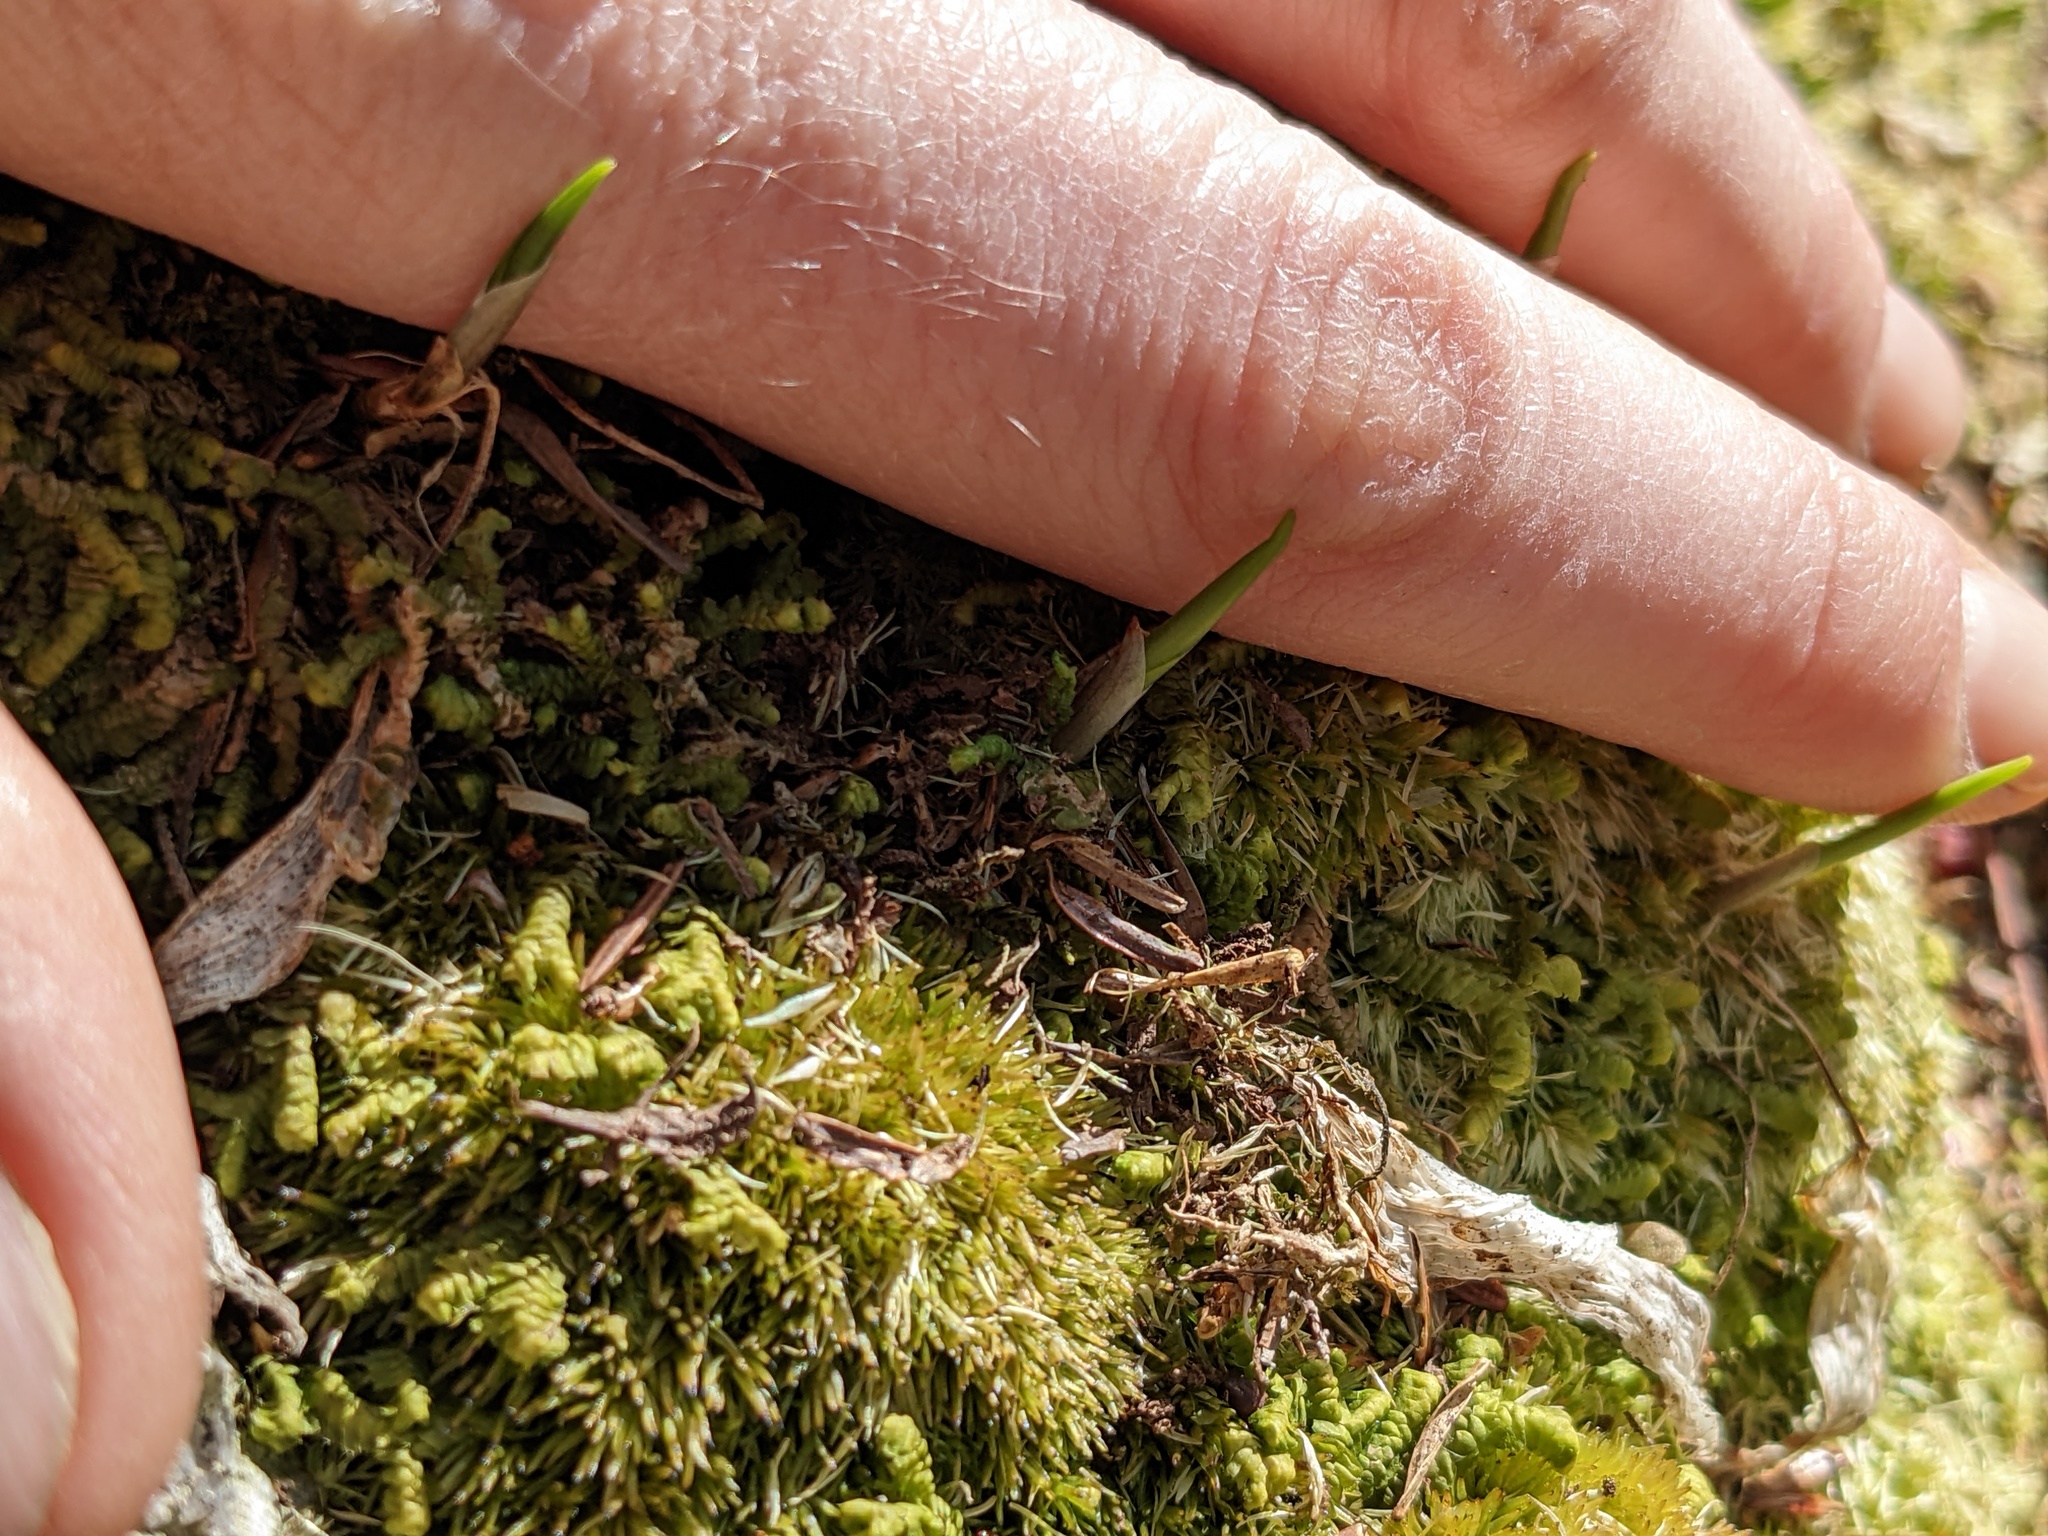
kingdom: Plantae
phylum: Tracheophyta
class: Liliopsida
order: Asparagales
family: Asparagaceae
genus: Maianthemum
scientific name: Maianthemum canadense
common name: False lily-of-the-valley
